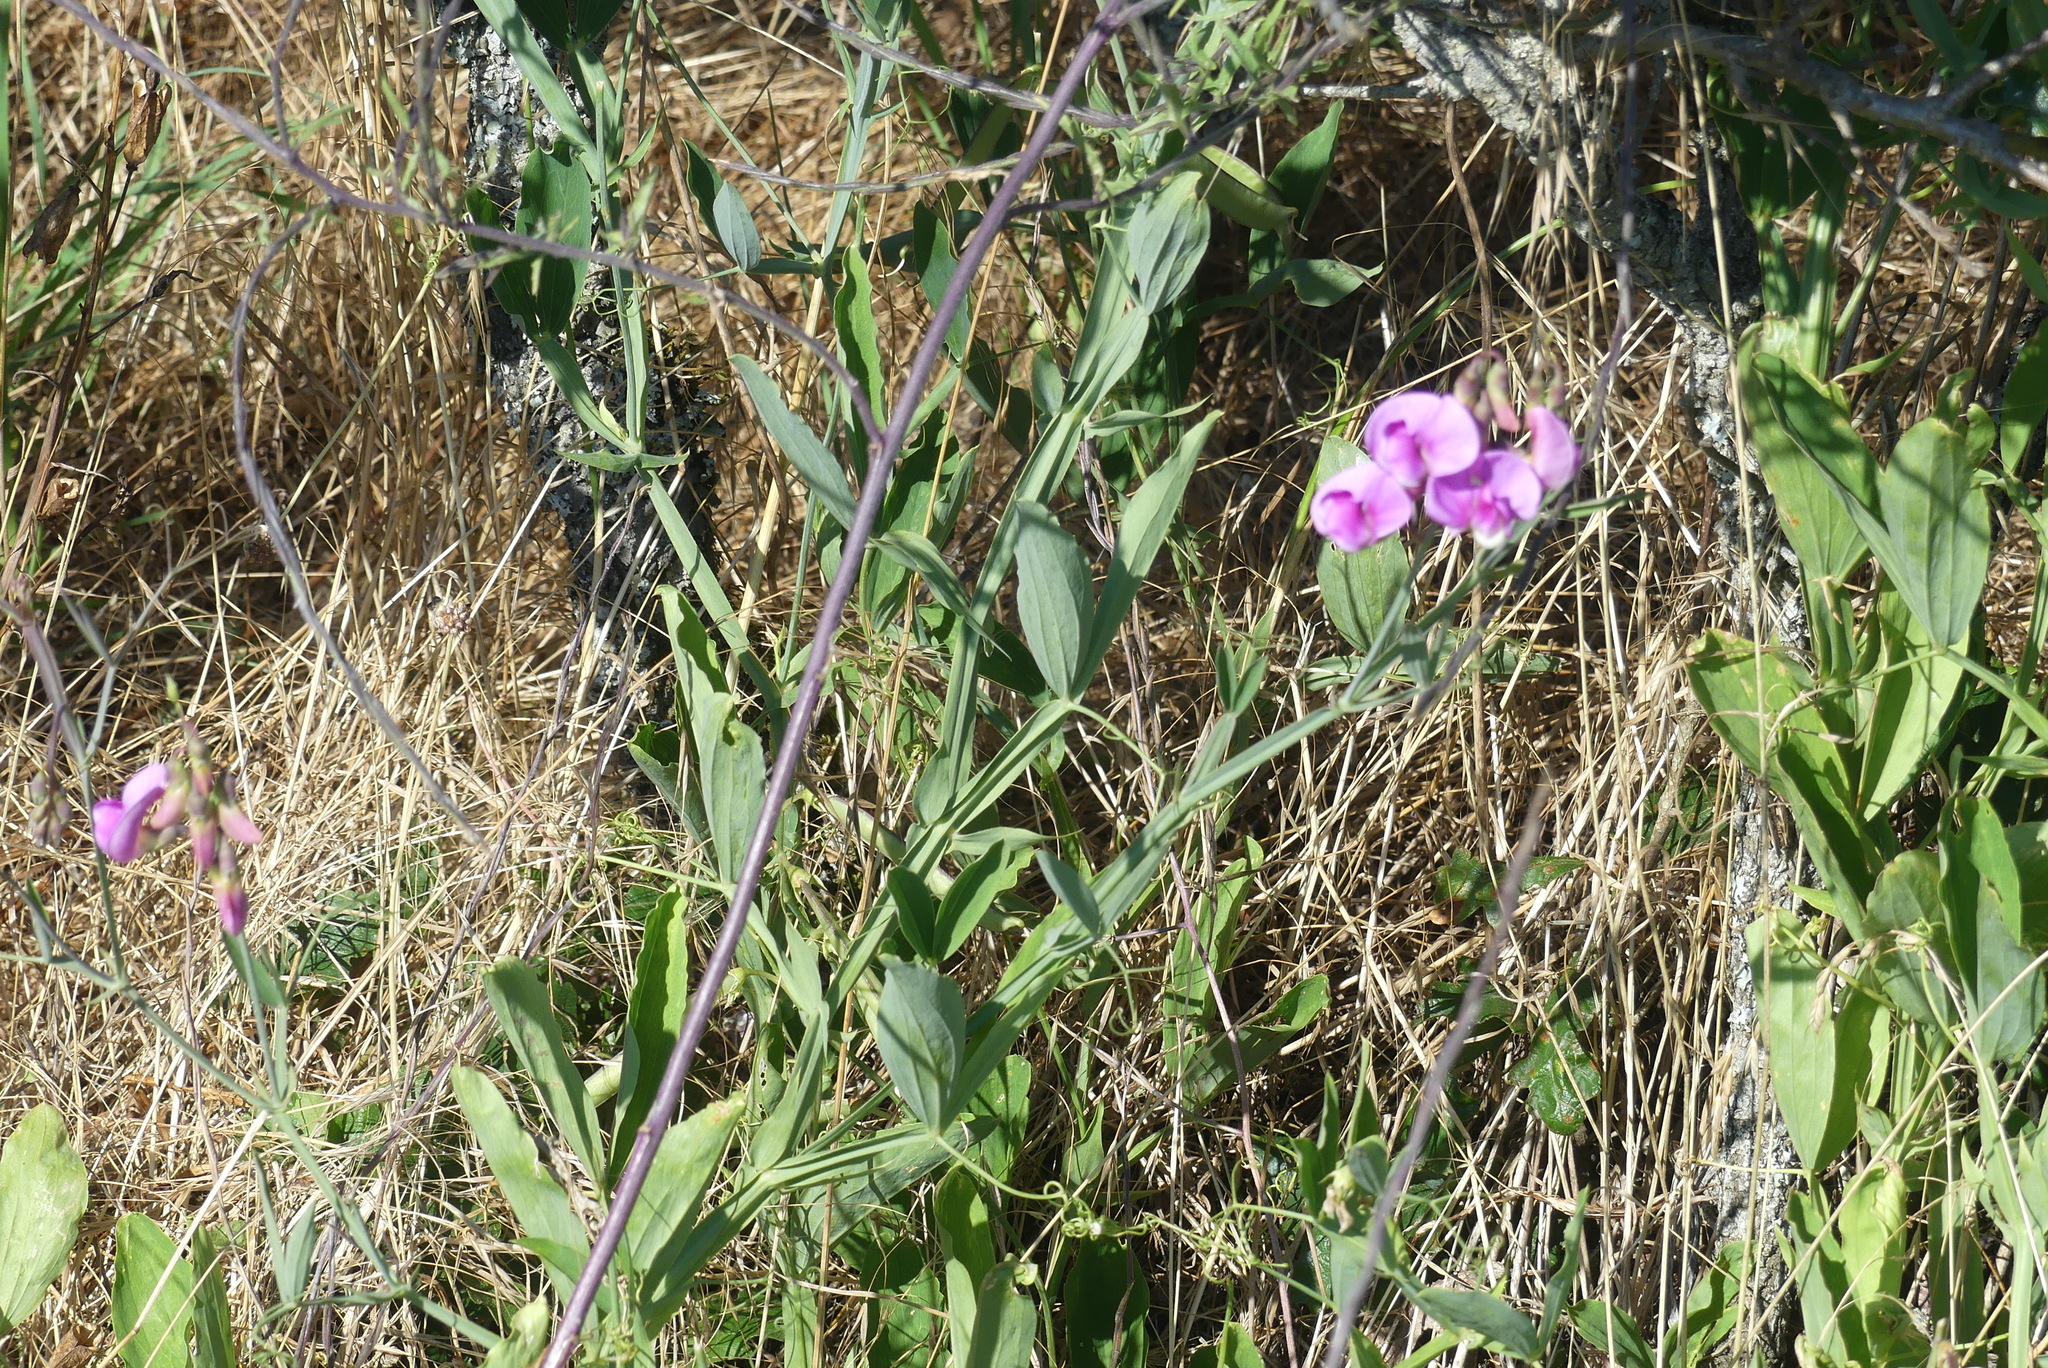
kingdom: Plantae
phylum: Tracheophyta
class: Magnoliopsida
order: Fabales
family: Fabaceae
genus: Lathyrus
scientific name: Lathyrus latifolius
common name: Perennial pea
